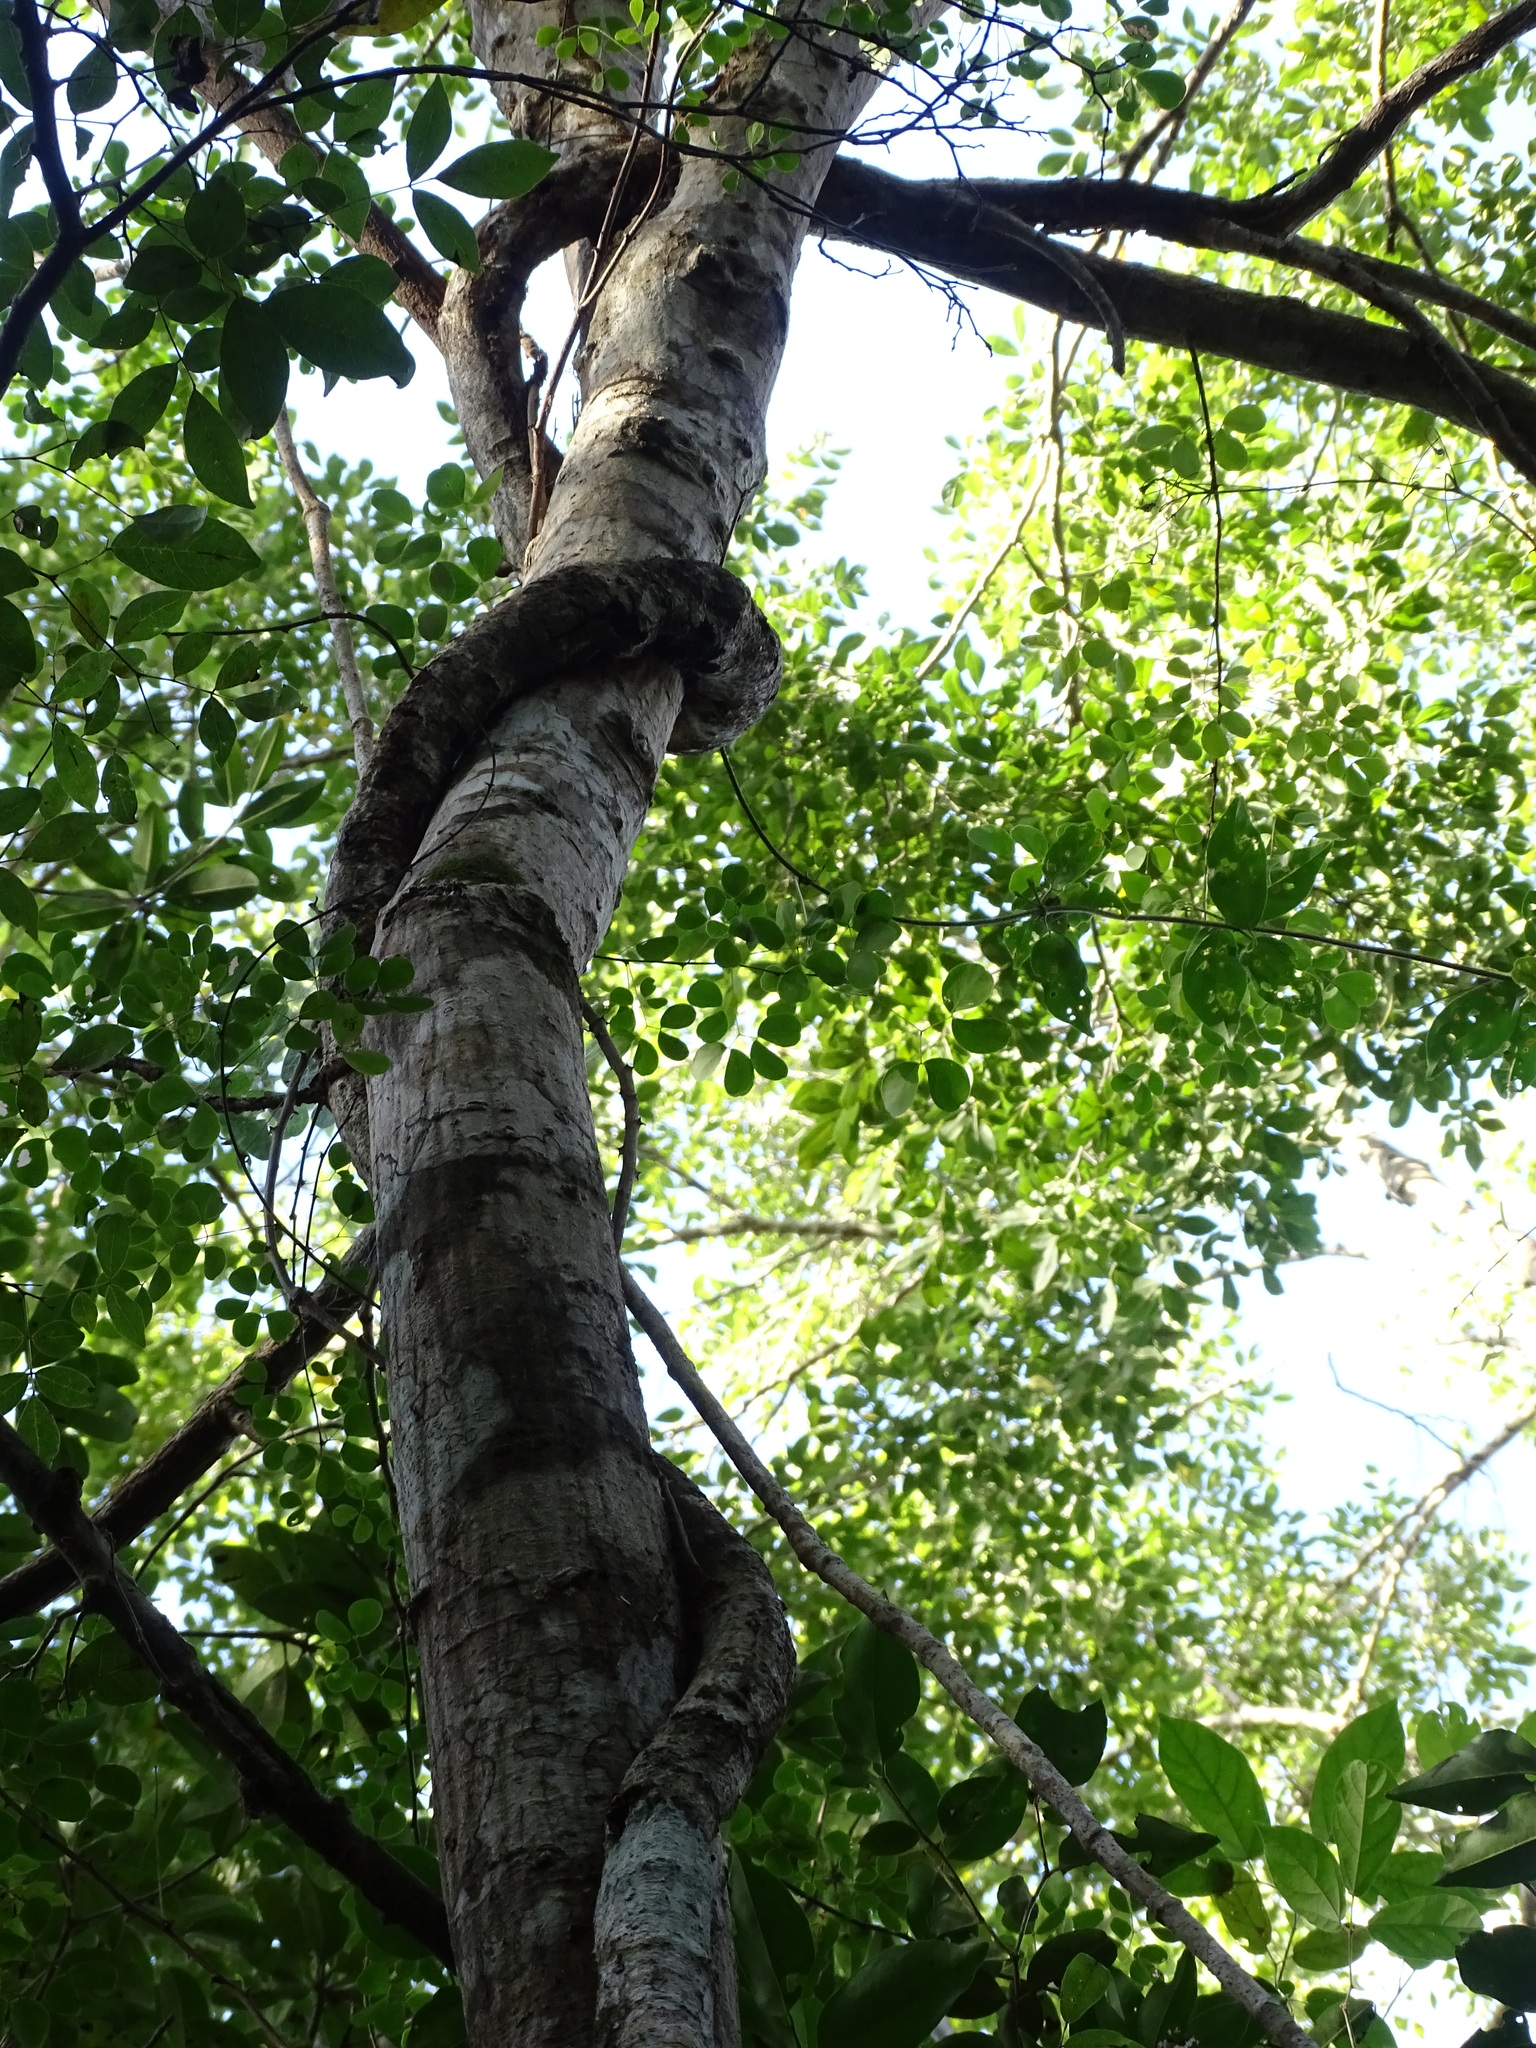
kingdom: Plantae
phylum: Tracheophyta
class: Magnoliopsida
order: Fabales
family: Fabaceae
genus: Havardia
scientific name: Havardia platyloba
